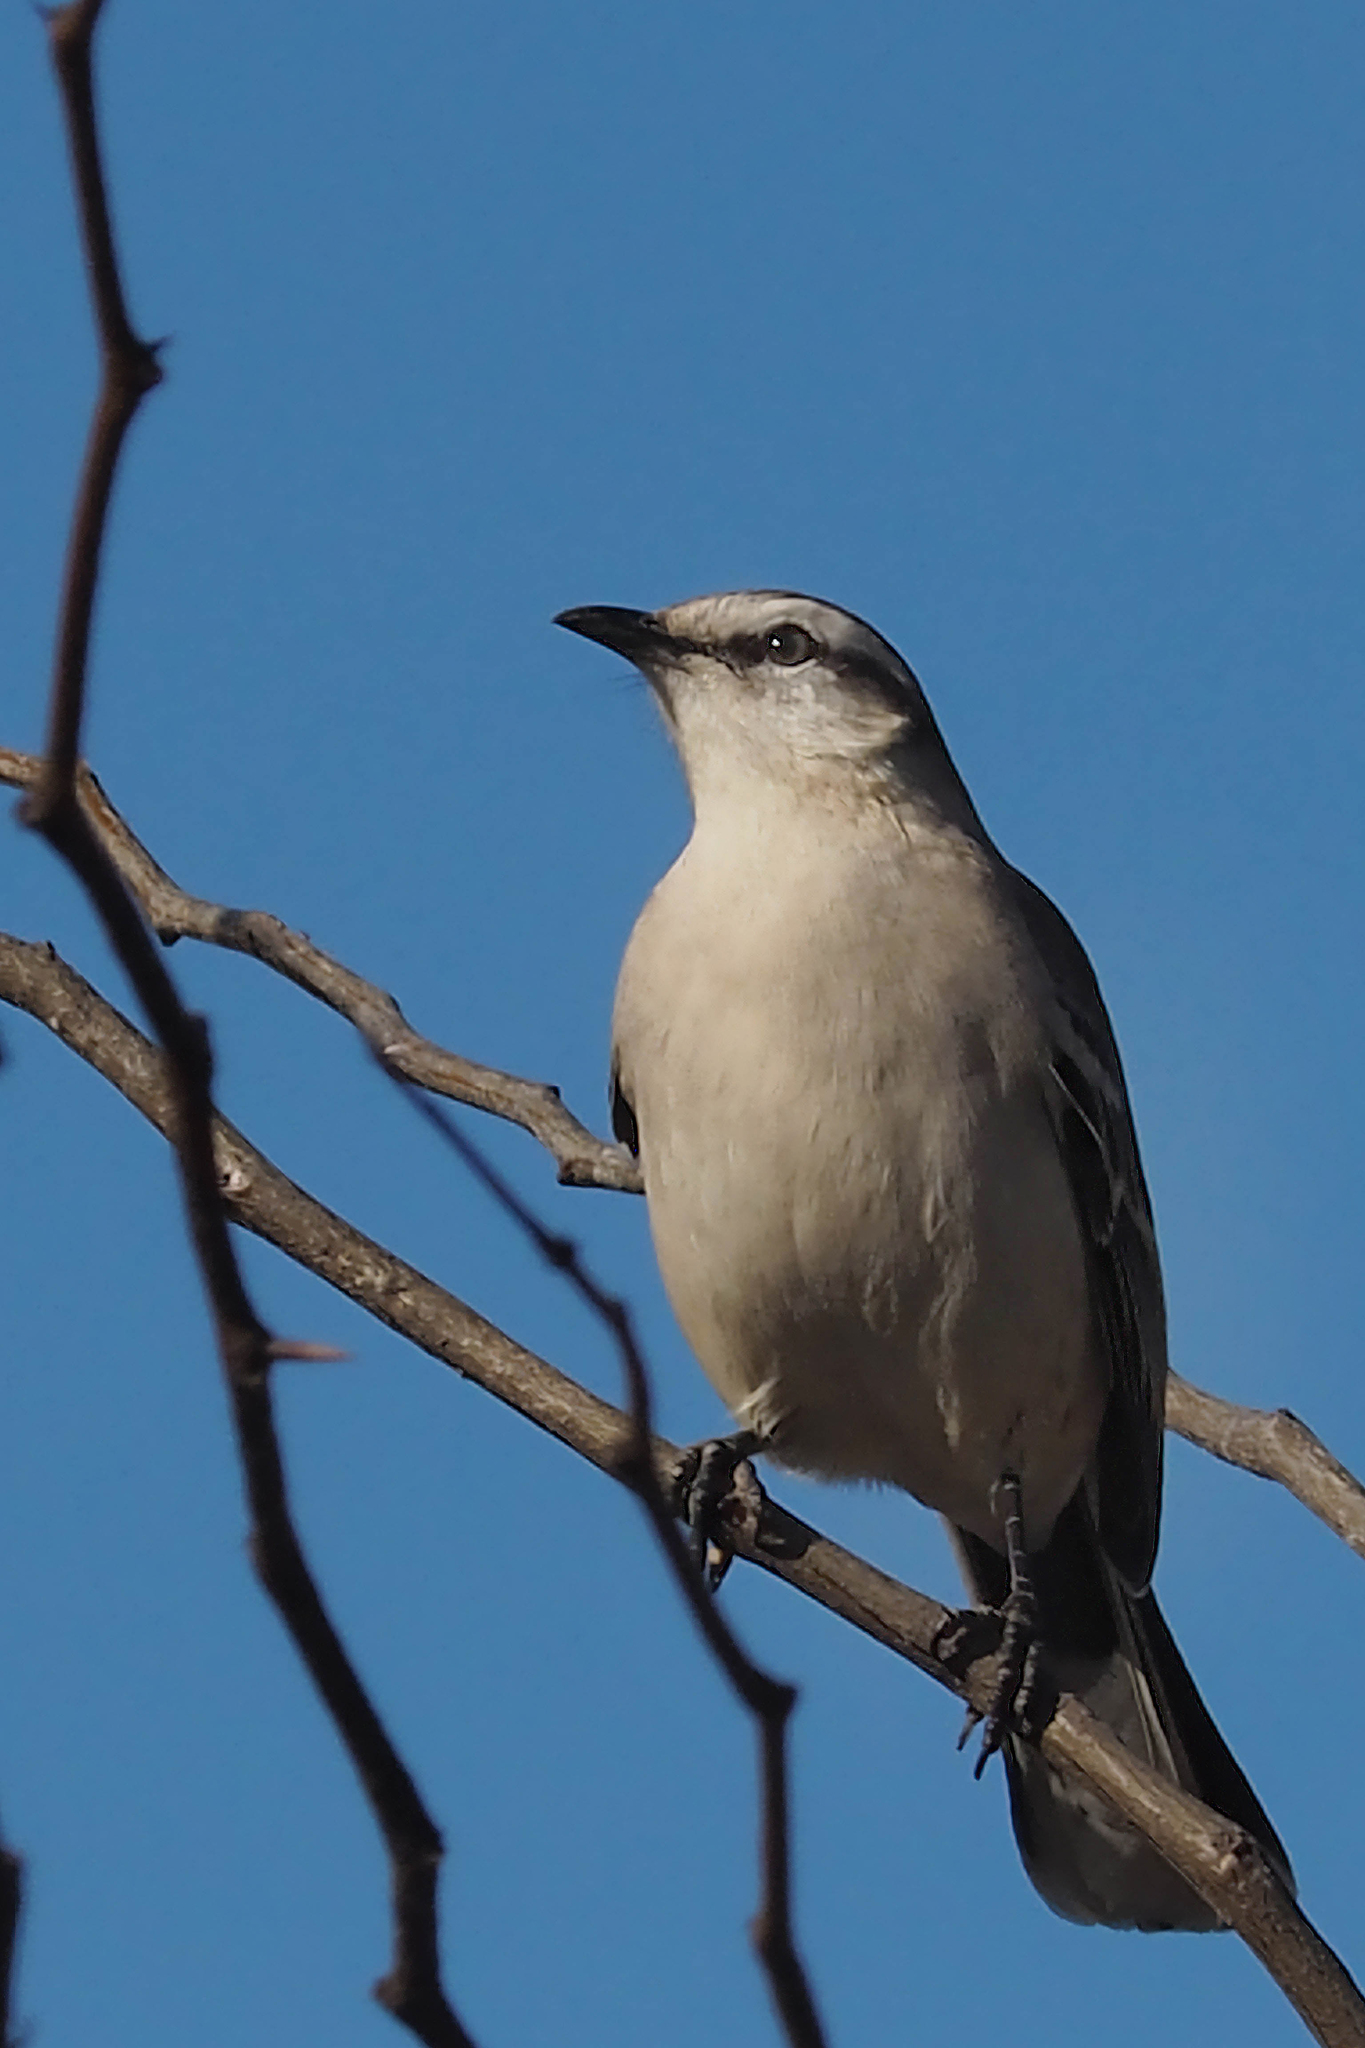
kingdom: Animalia
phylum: Chordata
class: Aves
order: Passeriformes
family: Mimidae
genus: Mimus
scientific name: Mimus saturninus
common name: Chalk-browed mockingbird
